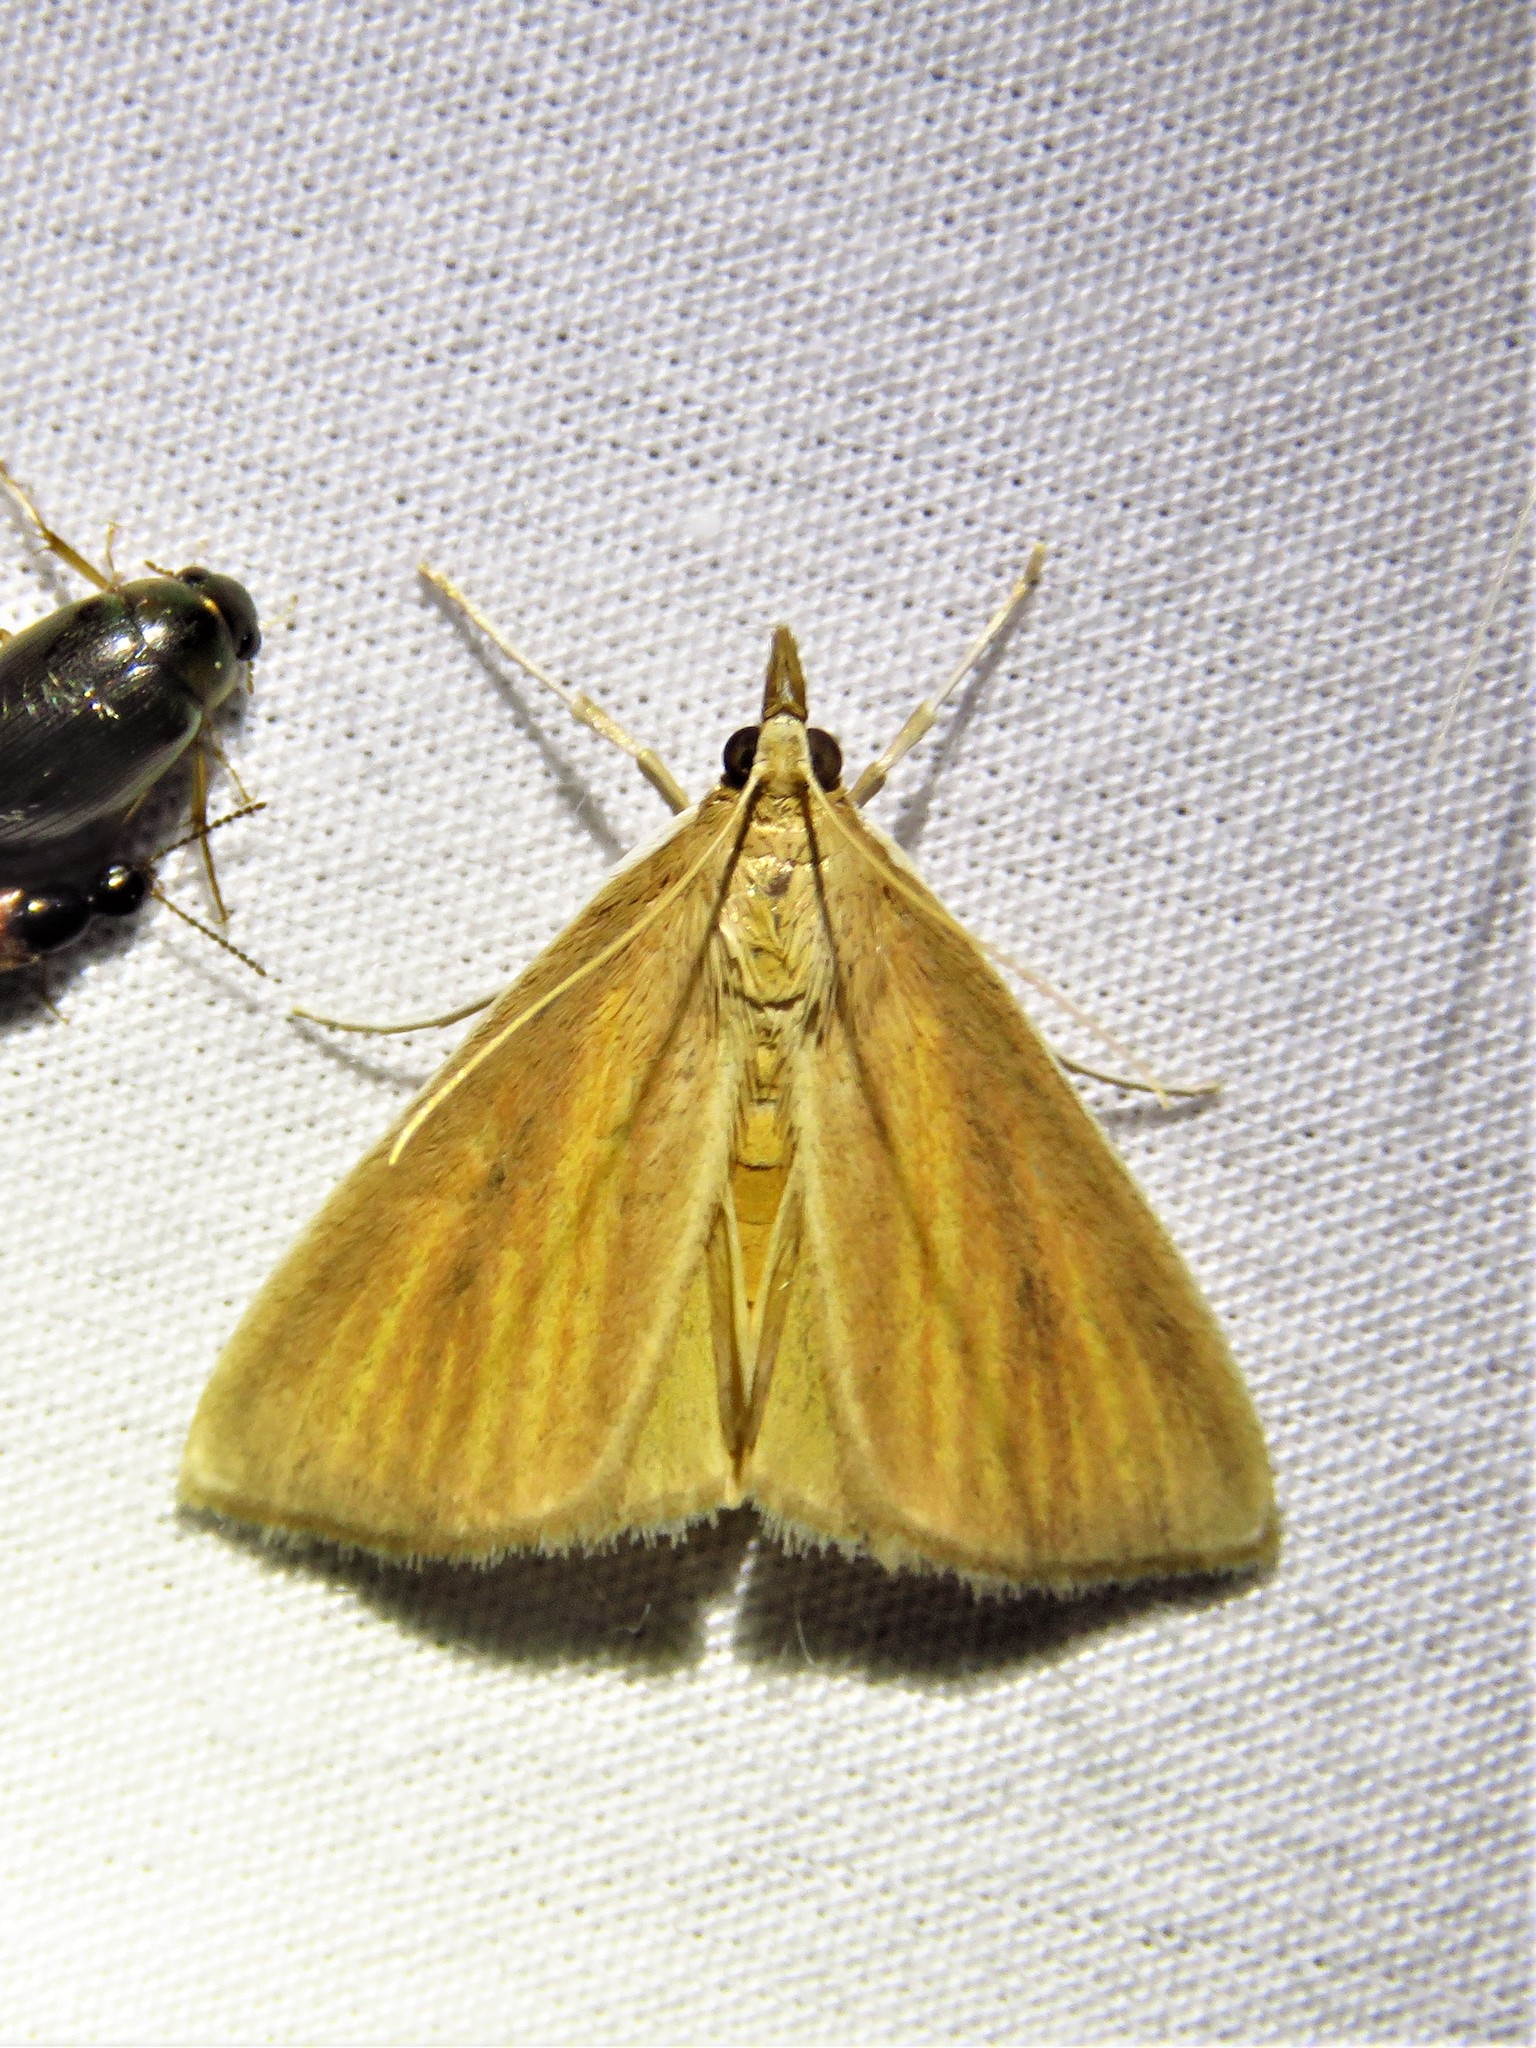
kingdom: Animalia
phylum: Arthropoda
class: Insecta
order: Lepidoptera
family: Crambidae
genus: Nascia
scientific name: Nascia acutellus
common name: Streaked orange moth
